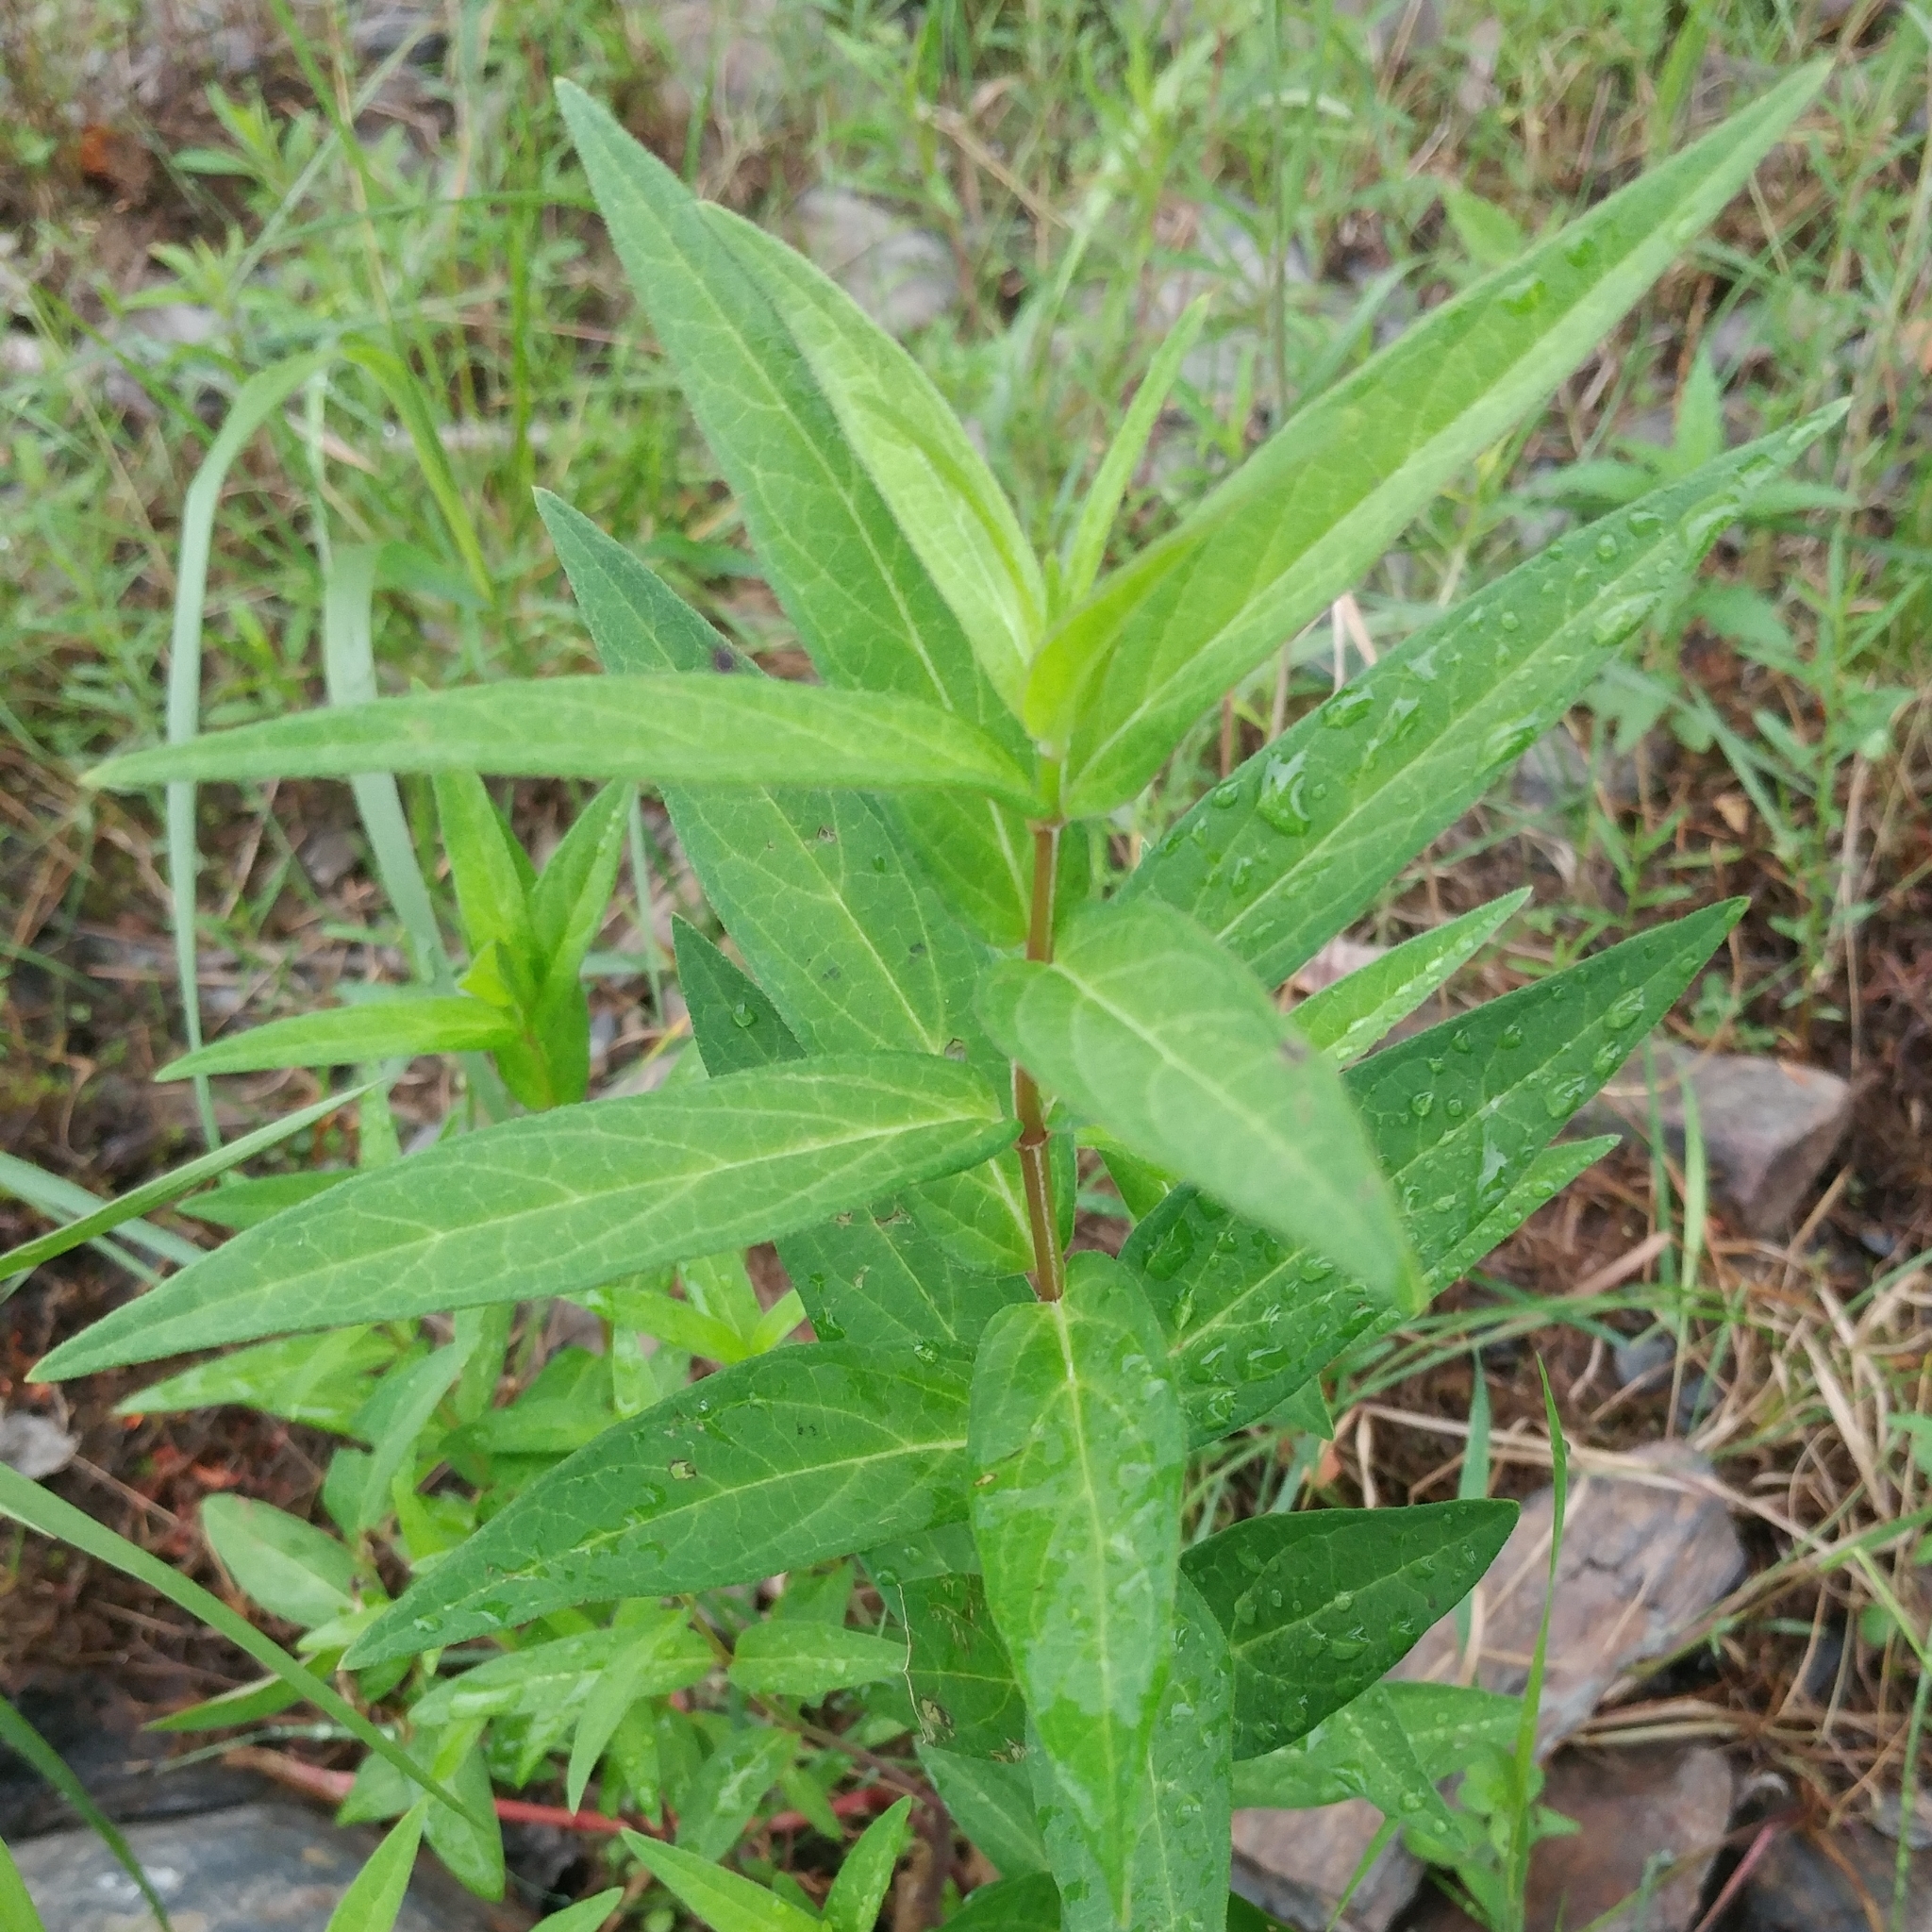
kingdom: Plantae
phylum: Tracheophyta
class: Magnoliopsida
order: Gentianales
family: Apocynaceae
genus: Asclepias
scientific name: Asclepias incarnata
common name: Swamp milkweed
